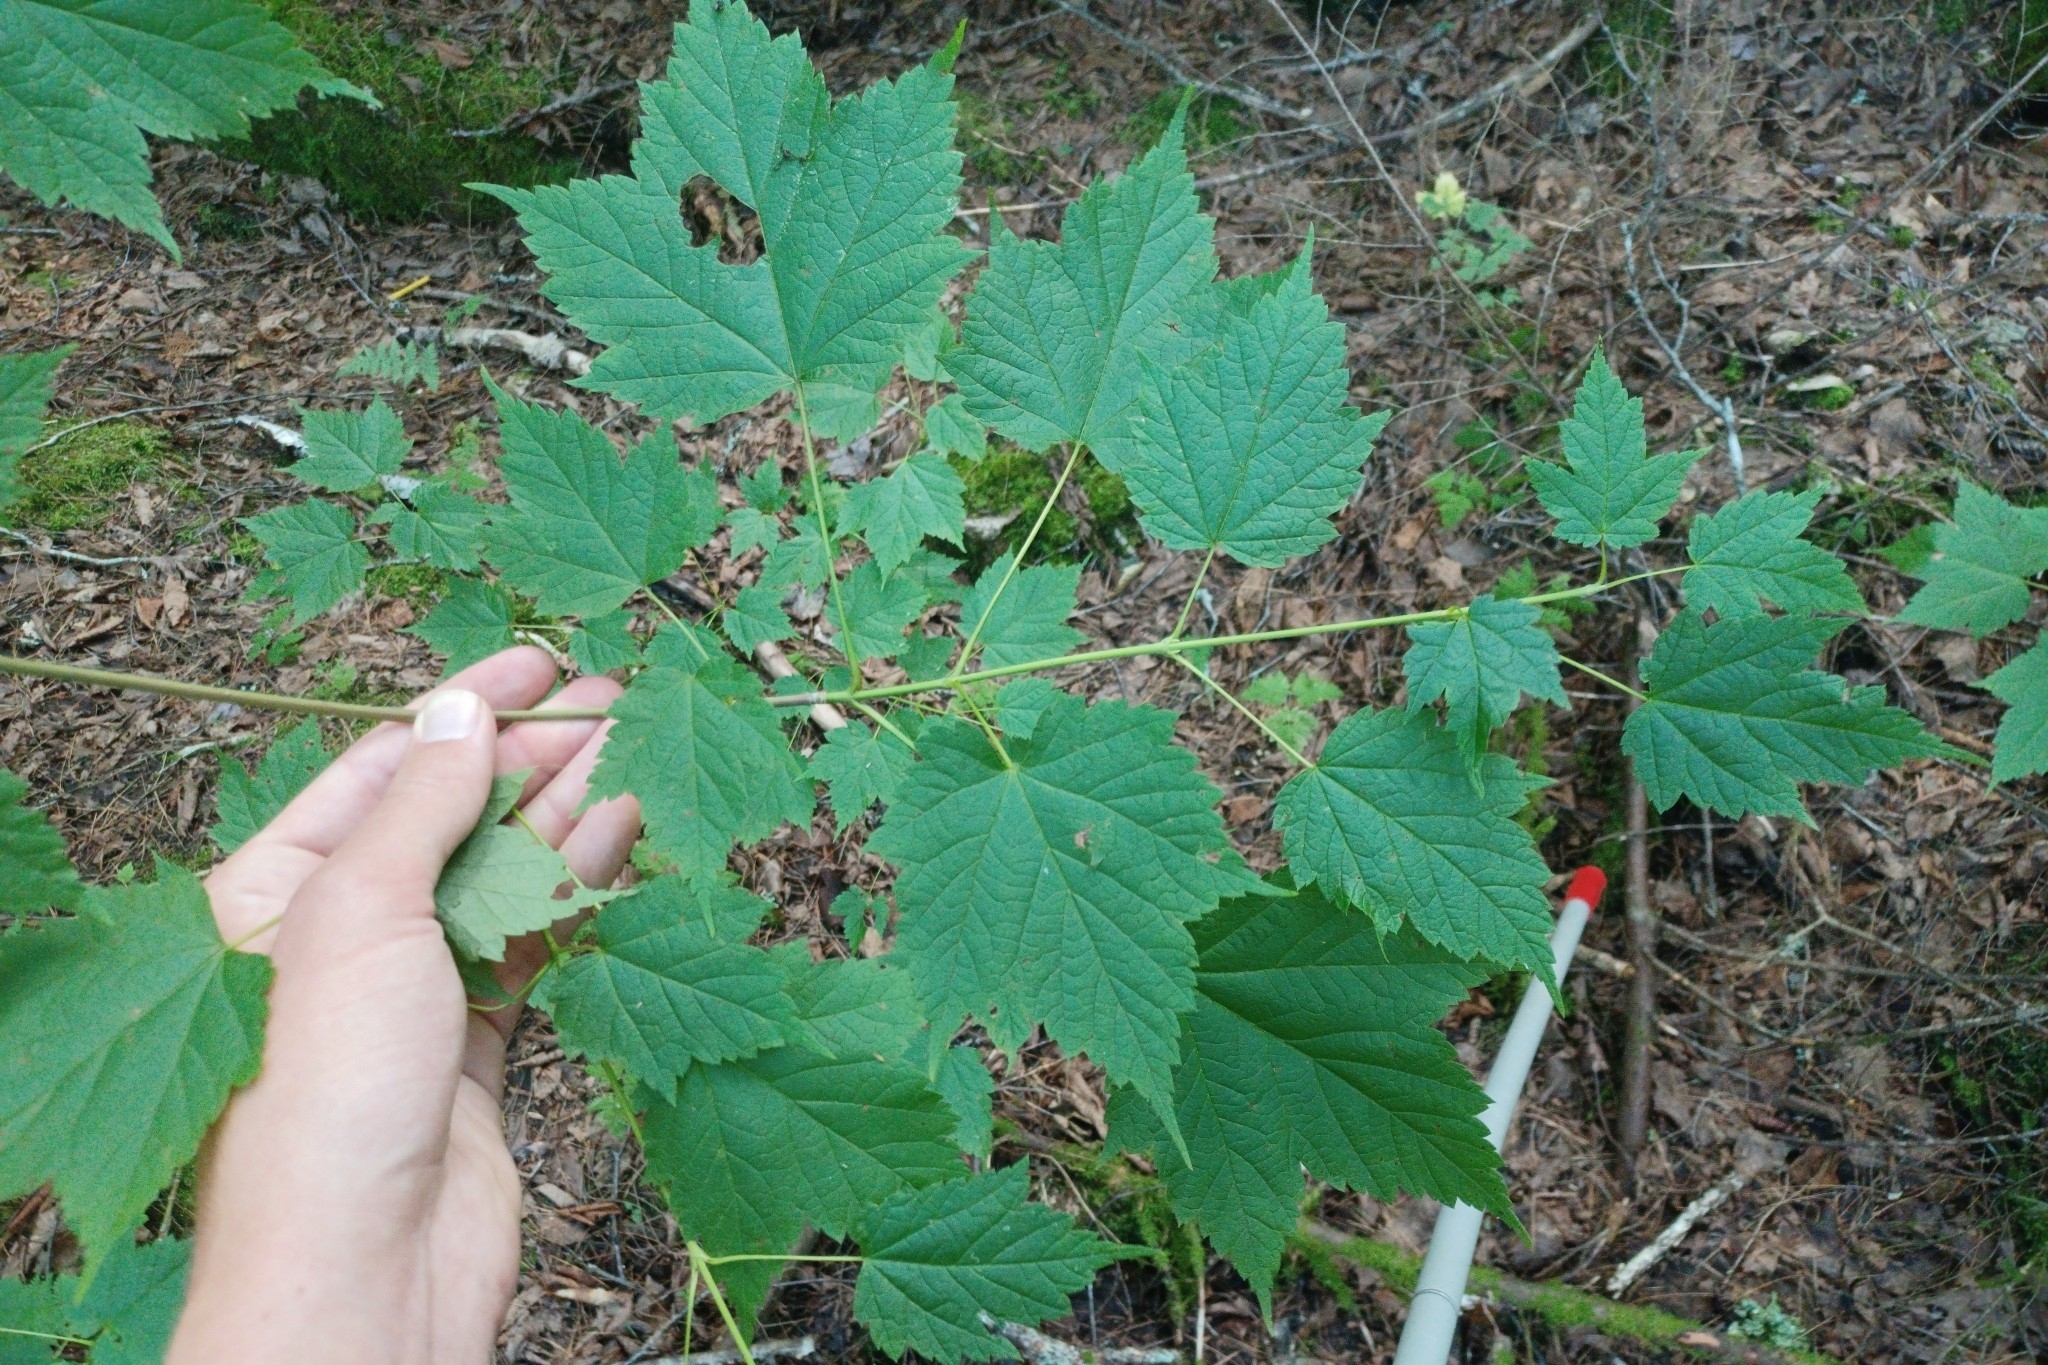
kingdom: Plantae
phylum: Tracheophyta
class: Magnoliopsida
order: Sapindales
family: Sapindaceae
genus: Acer
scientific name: Acer spicatum
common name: Mountain maple
